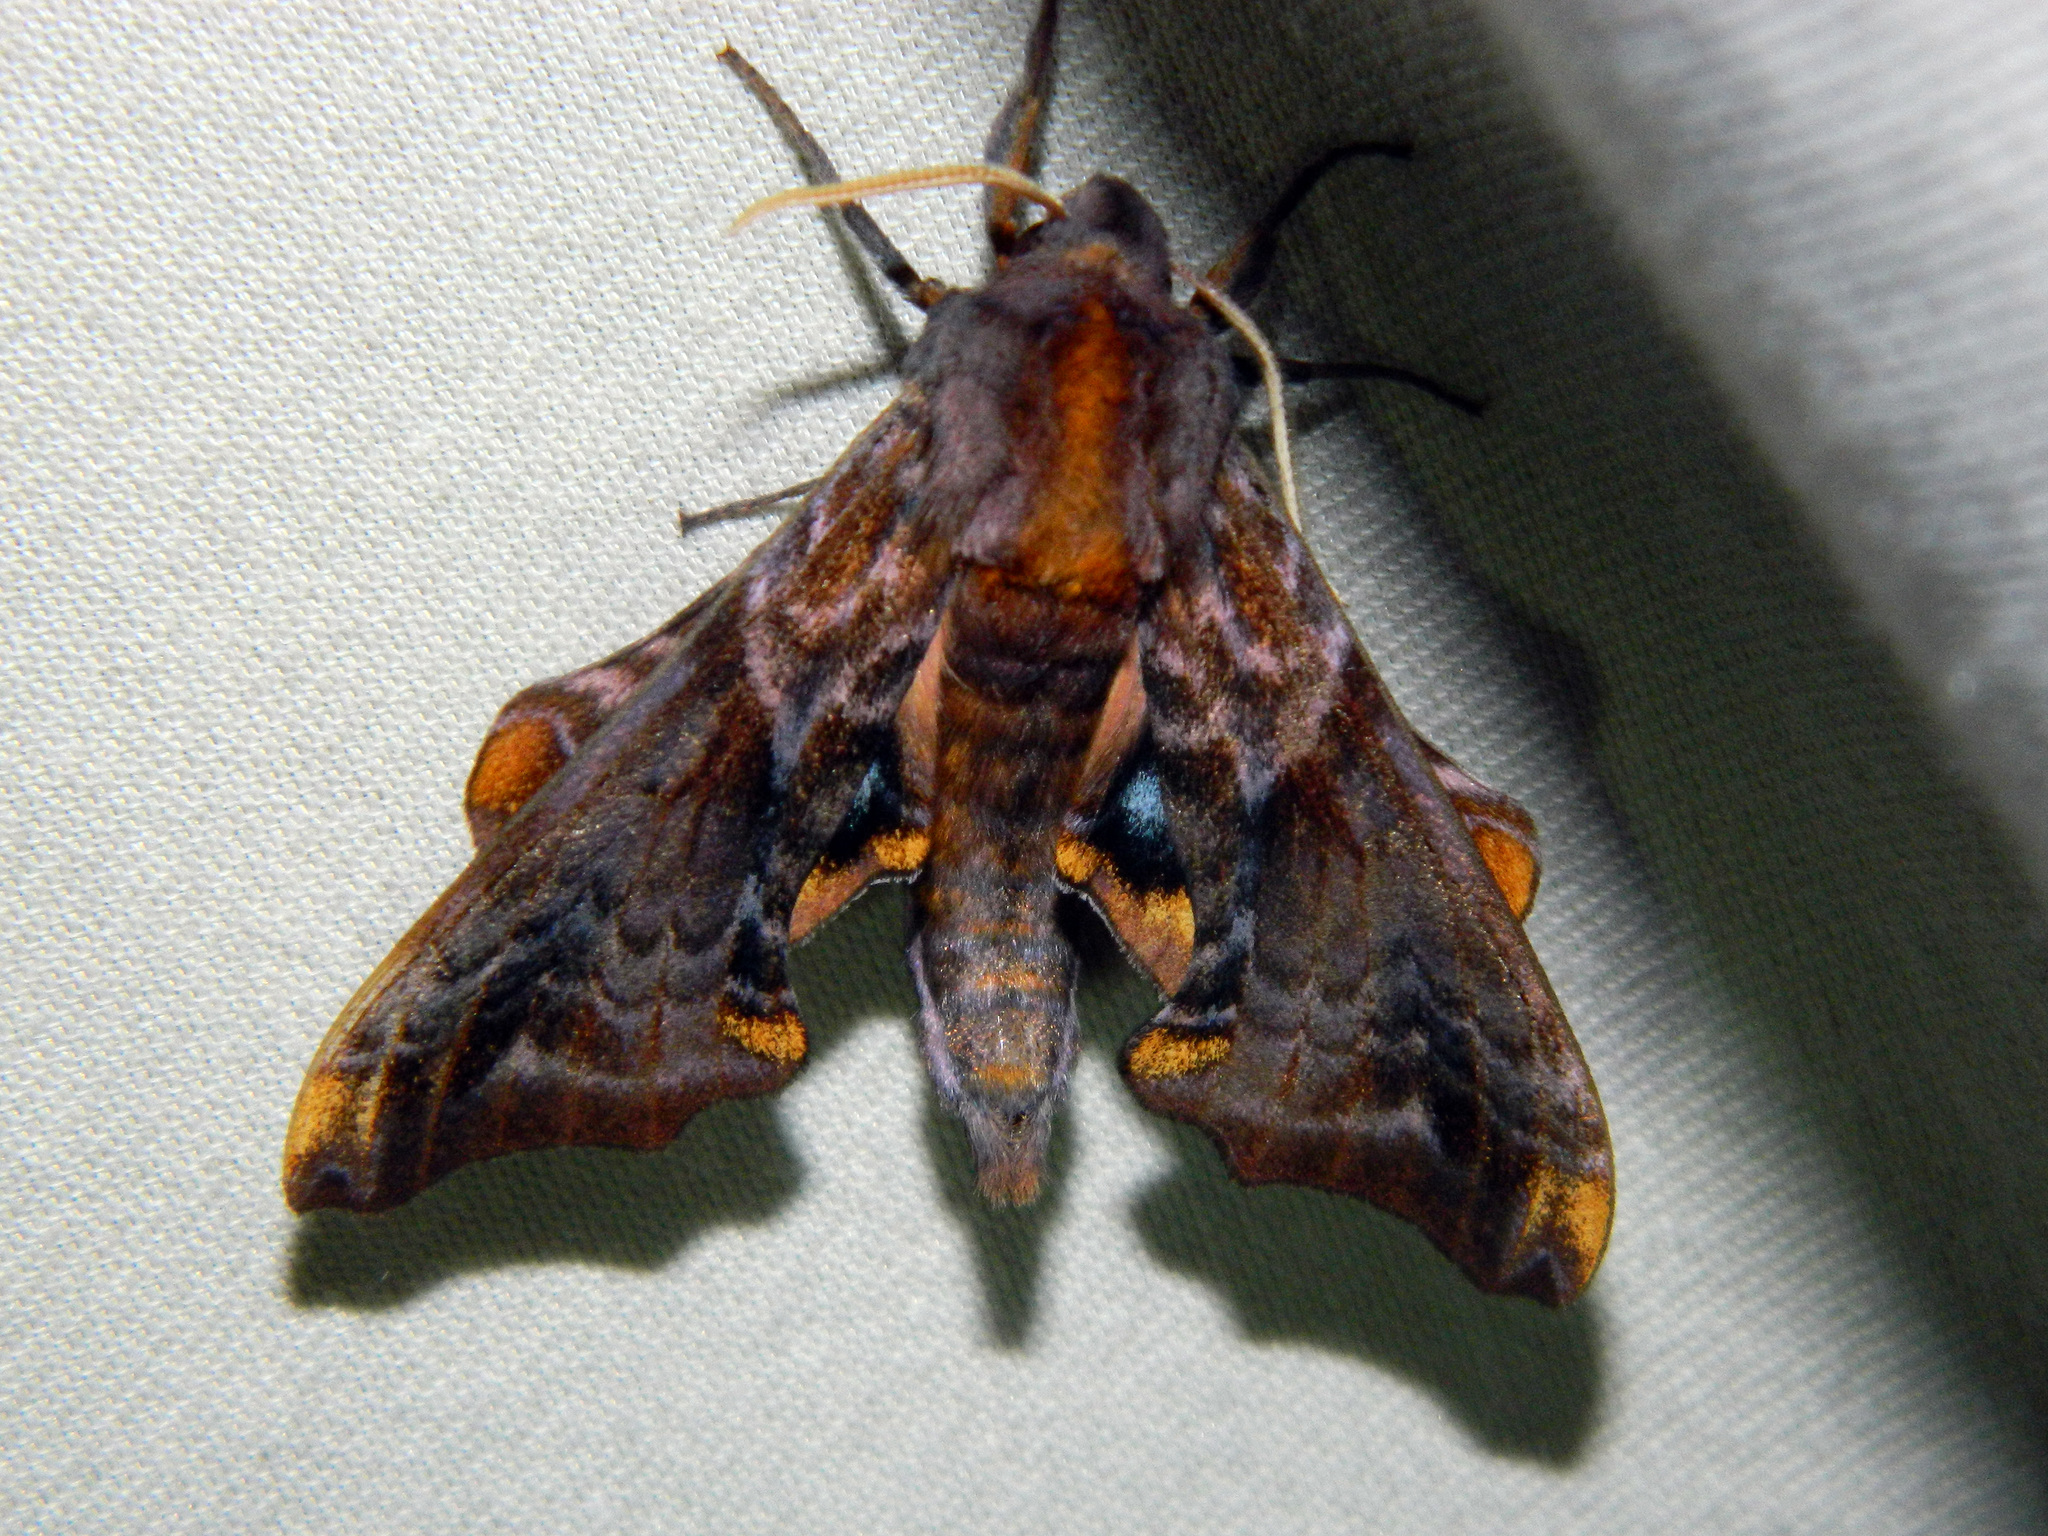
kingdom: Animalia
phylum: Arthropoda
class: Insecta
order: Lepidoptera
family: Sphingidae
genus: Paonias
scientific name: Paonias myops
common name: Small-eyed sphinx
